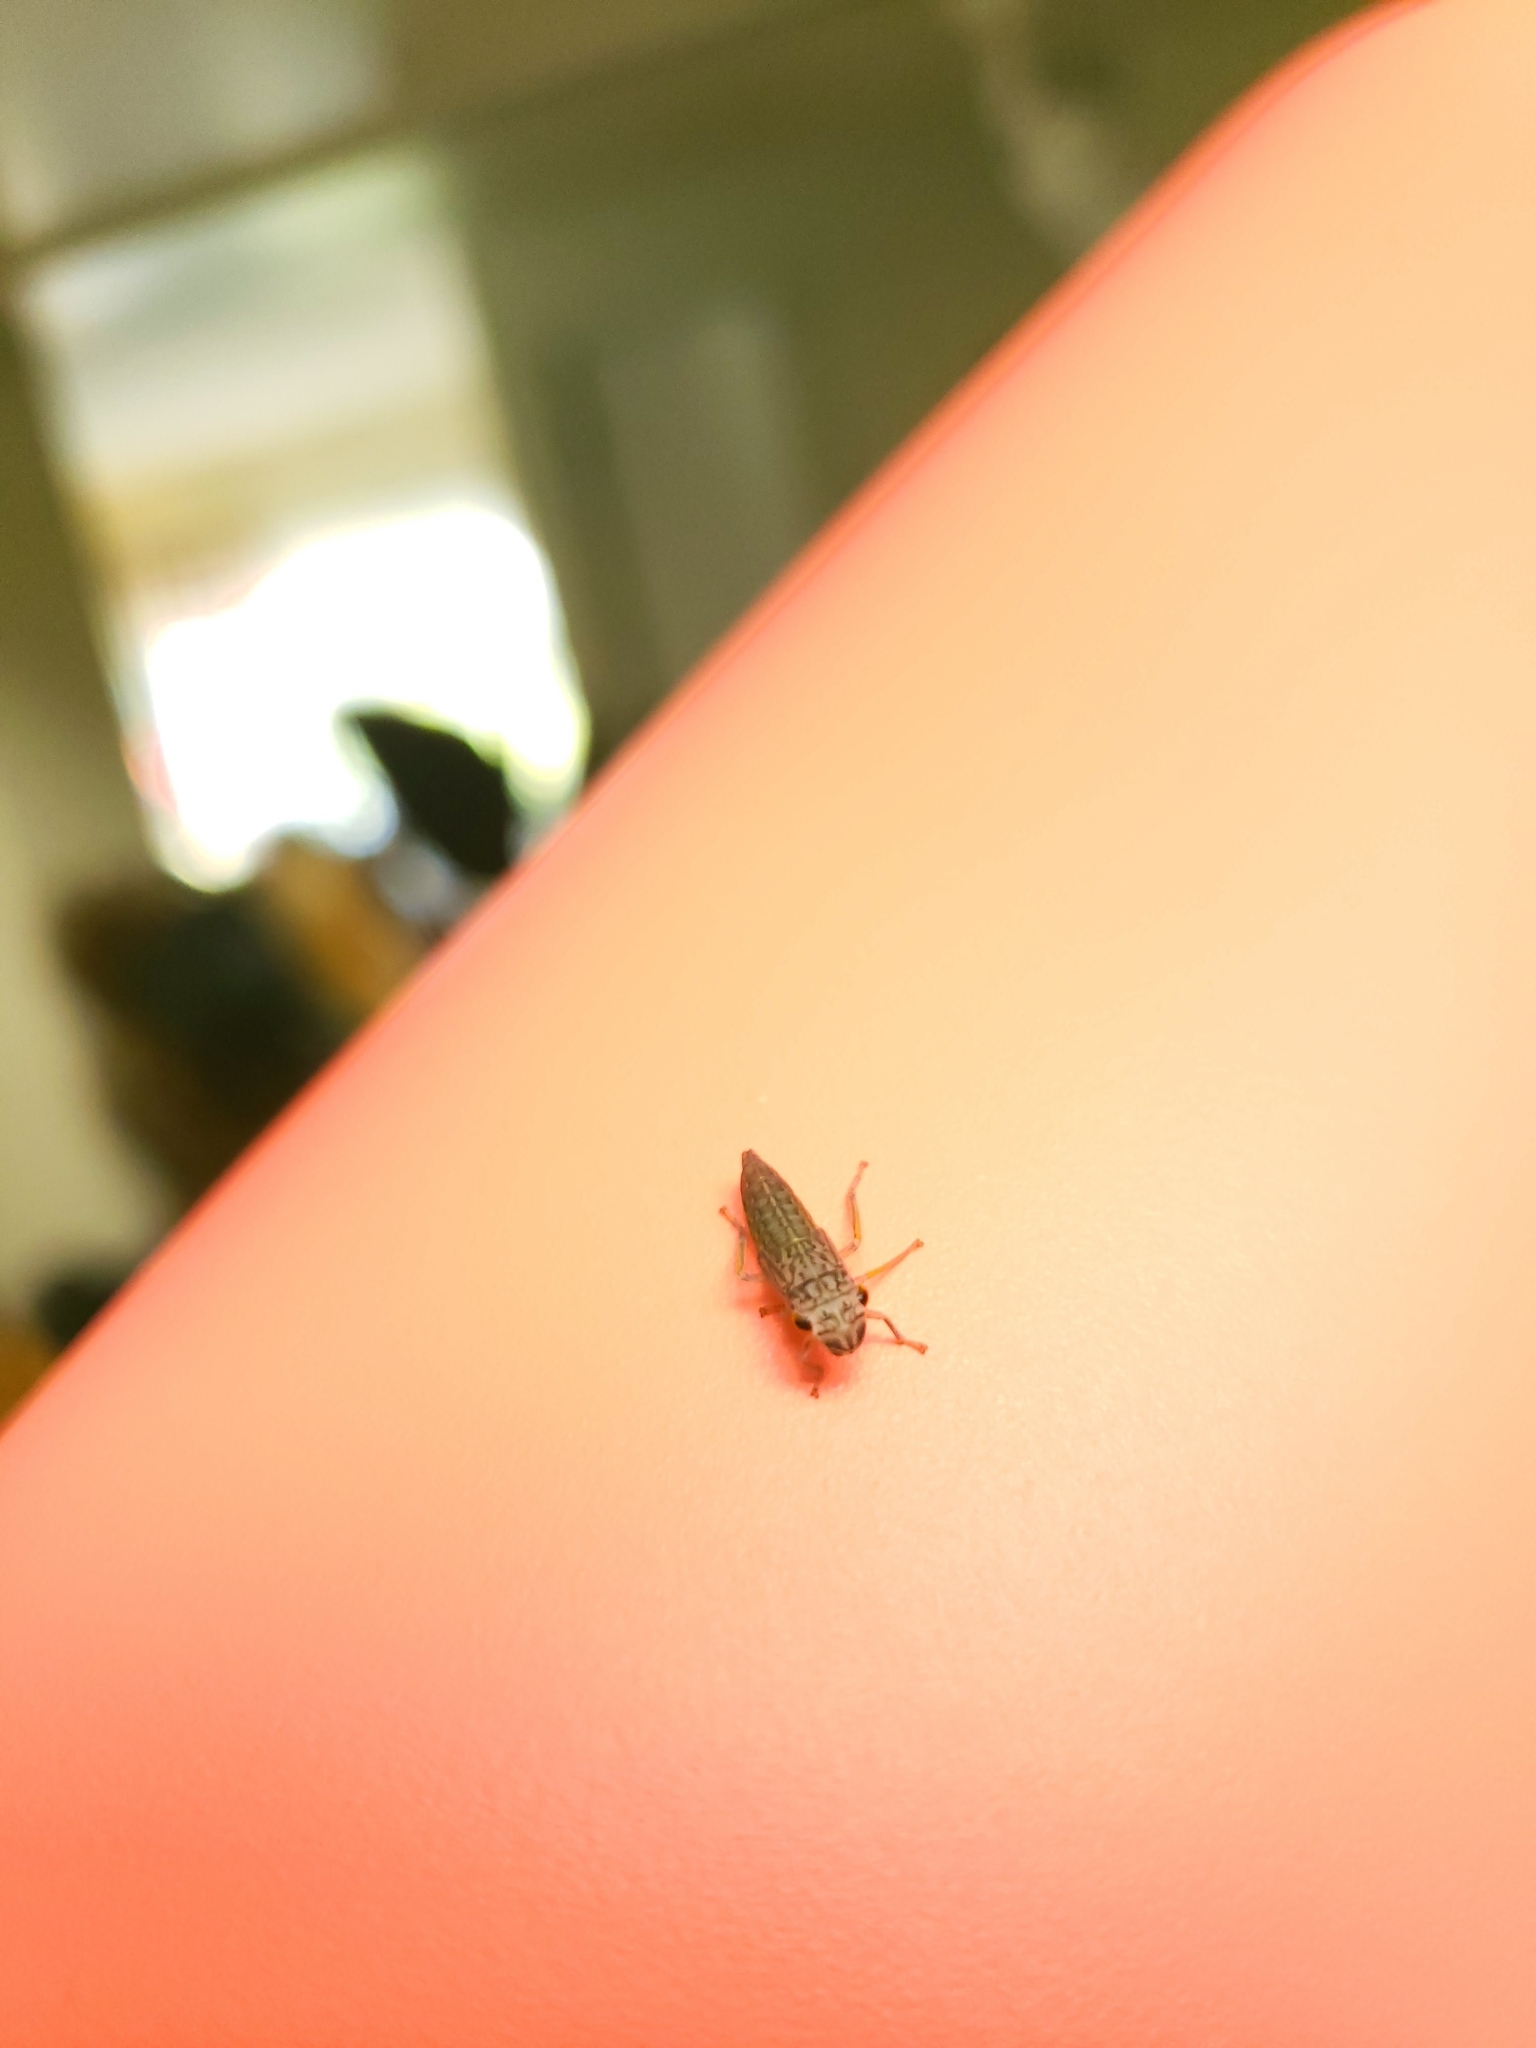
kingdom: Animalia
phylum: Arthropoda
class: Insecta
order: Hemiptera
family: Cicadellidae
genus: Oncometopia
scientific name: Oncometopia orbona
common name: Broad-headed sharpshooter
